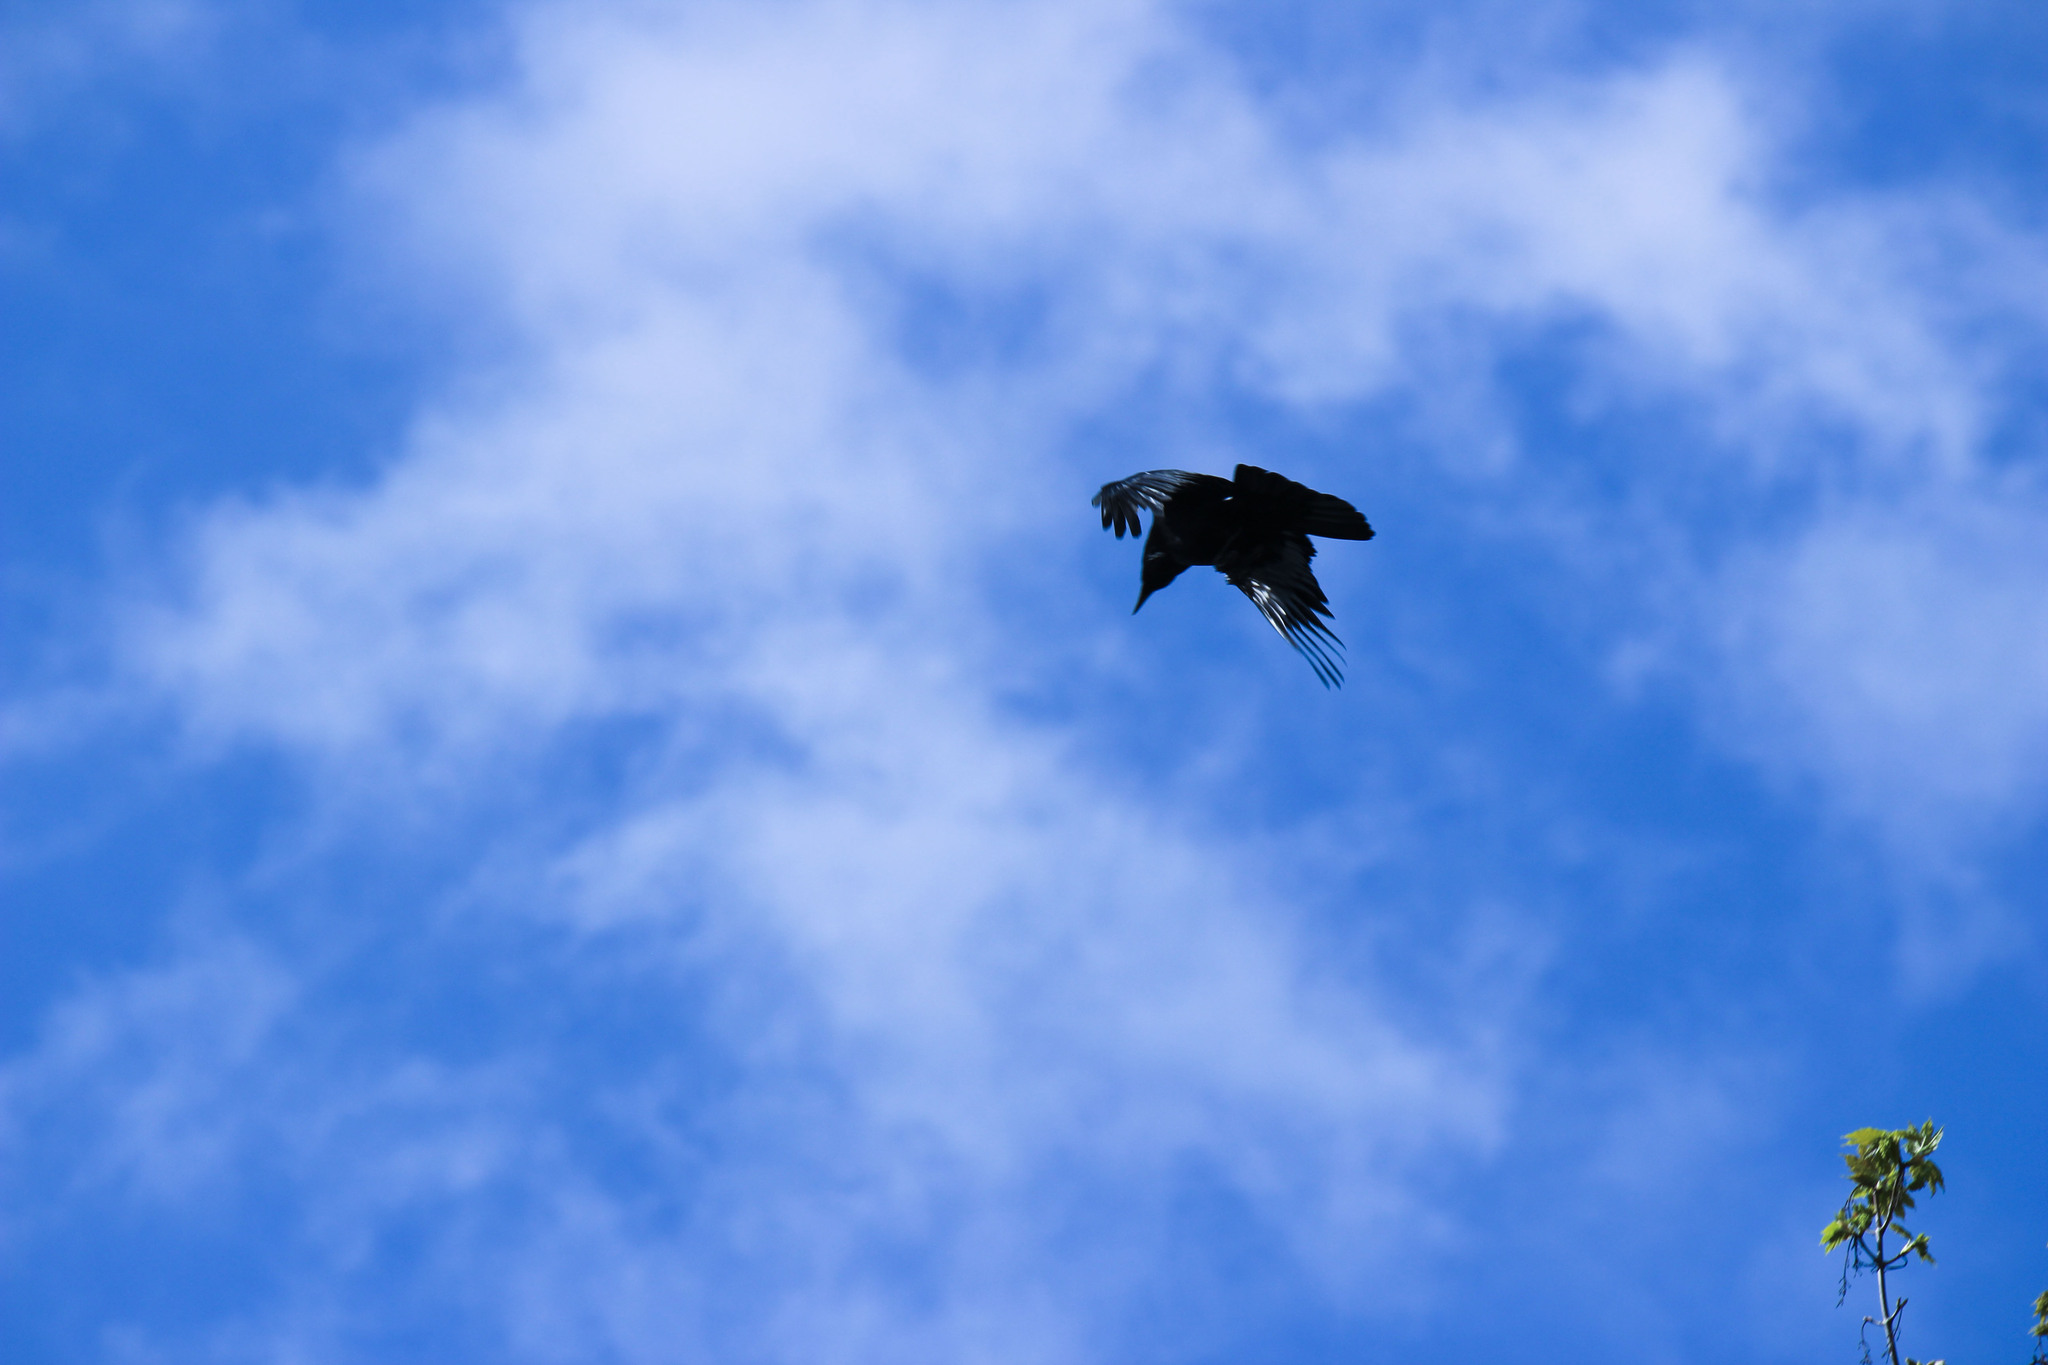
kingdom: Animalia
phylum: Chordata
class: Aves
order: Passeriformes
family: Corvidae
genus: Corvus
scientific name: Corvus corone
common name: Carrion crow
